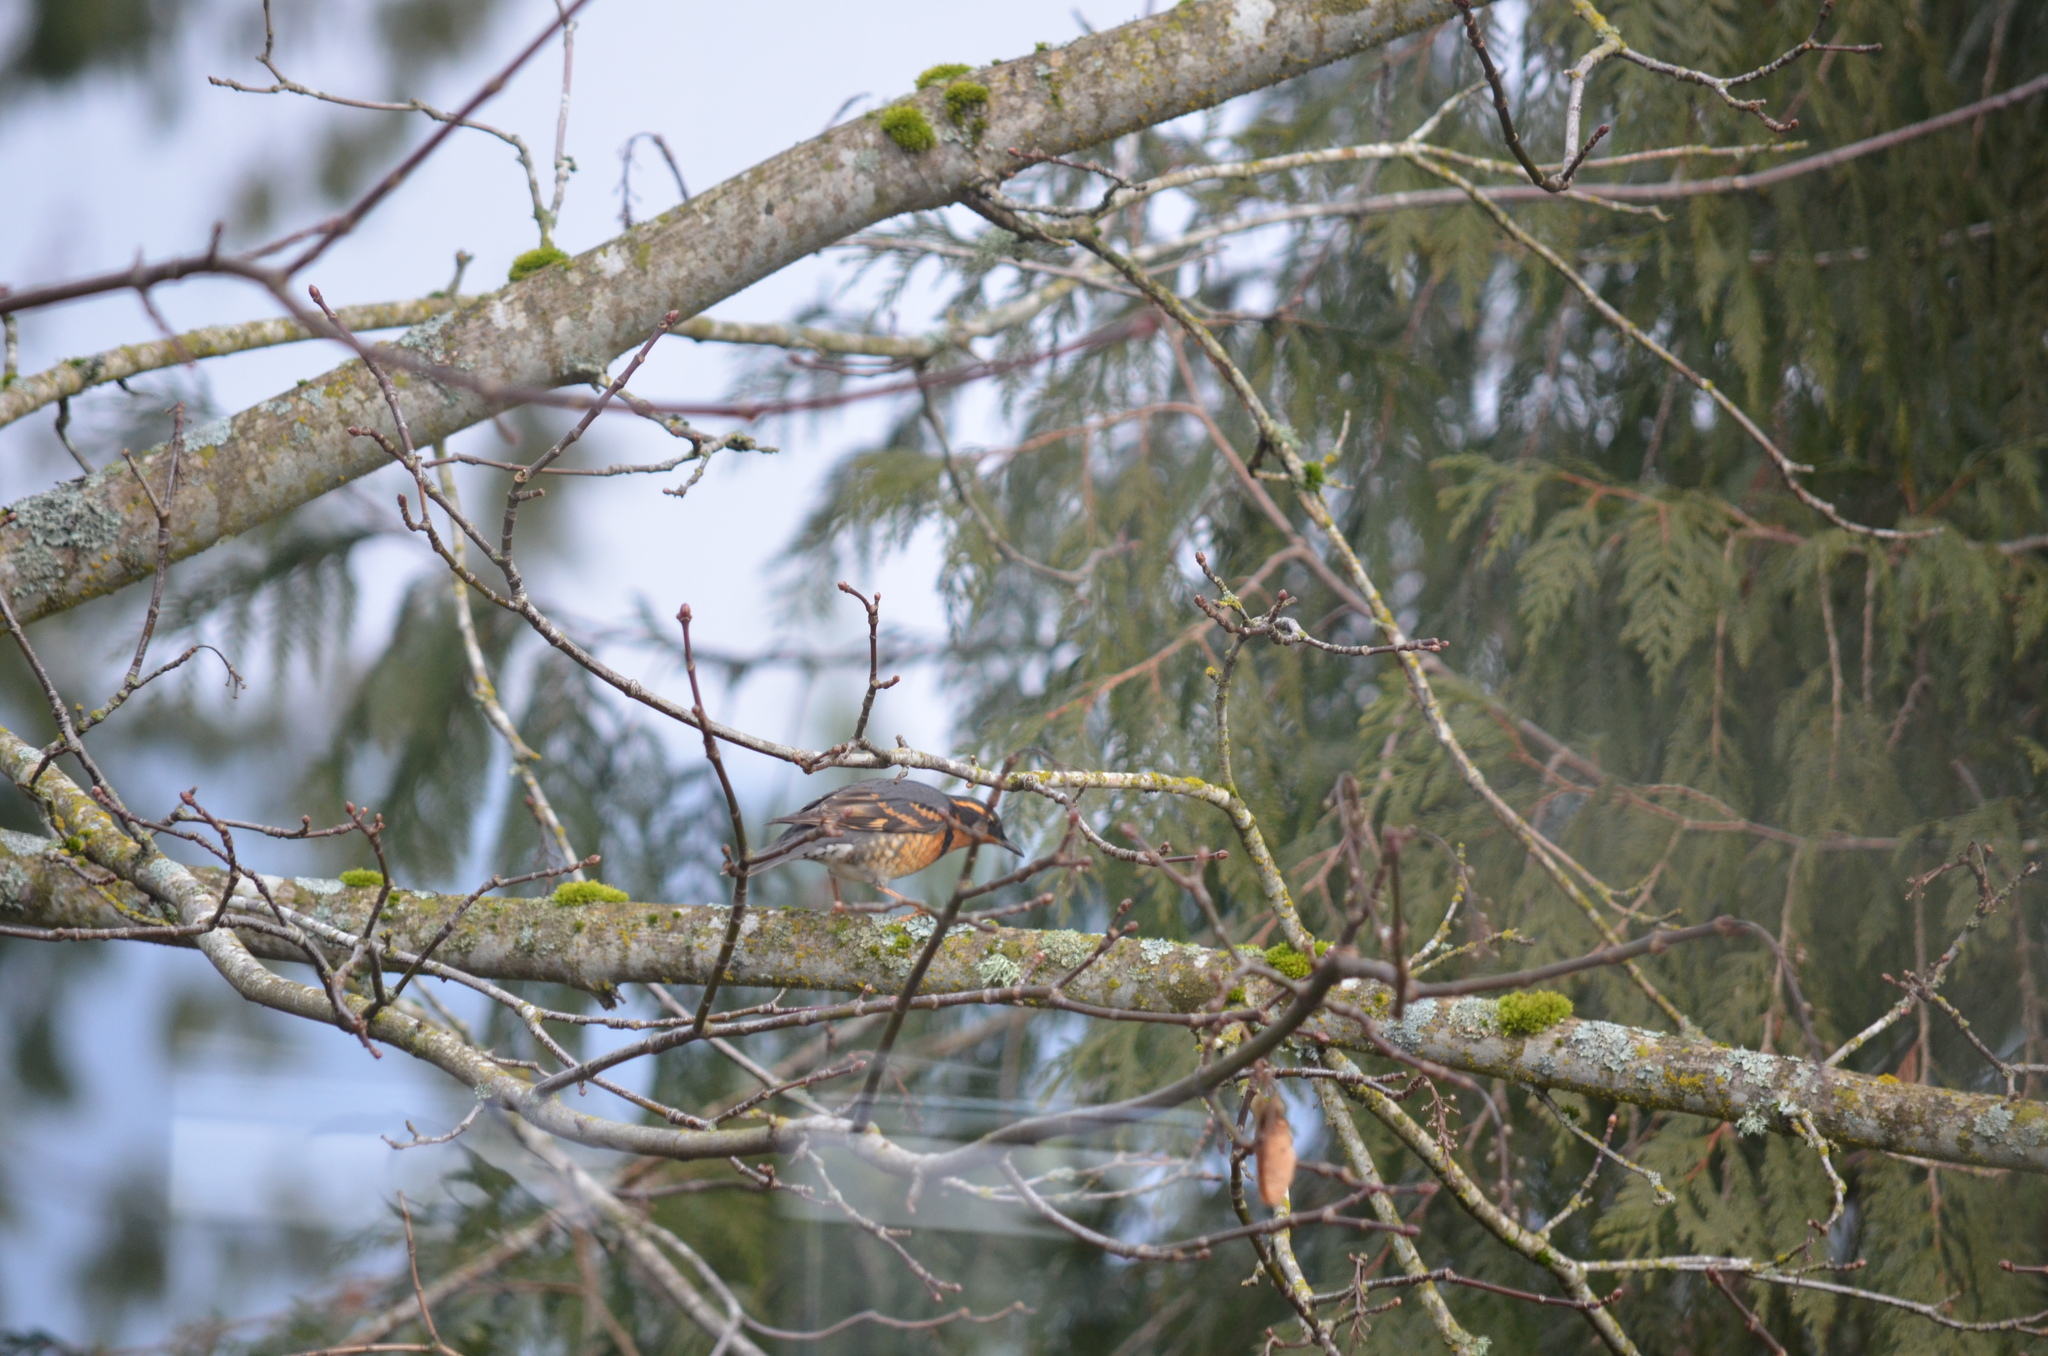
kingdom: Animalia
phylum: Chordata
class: Aves
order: Passeriformes
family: Turdidae
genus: Ixoreus
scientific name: Ixoreus naevius
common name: Varied thrush
